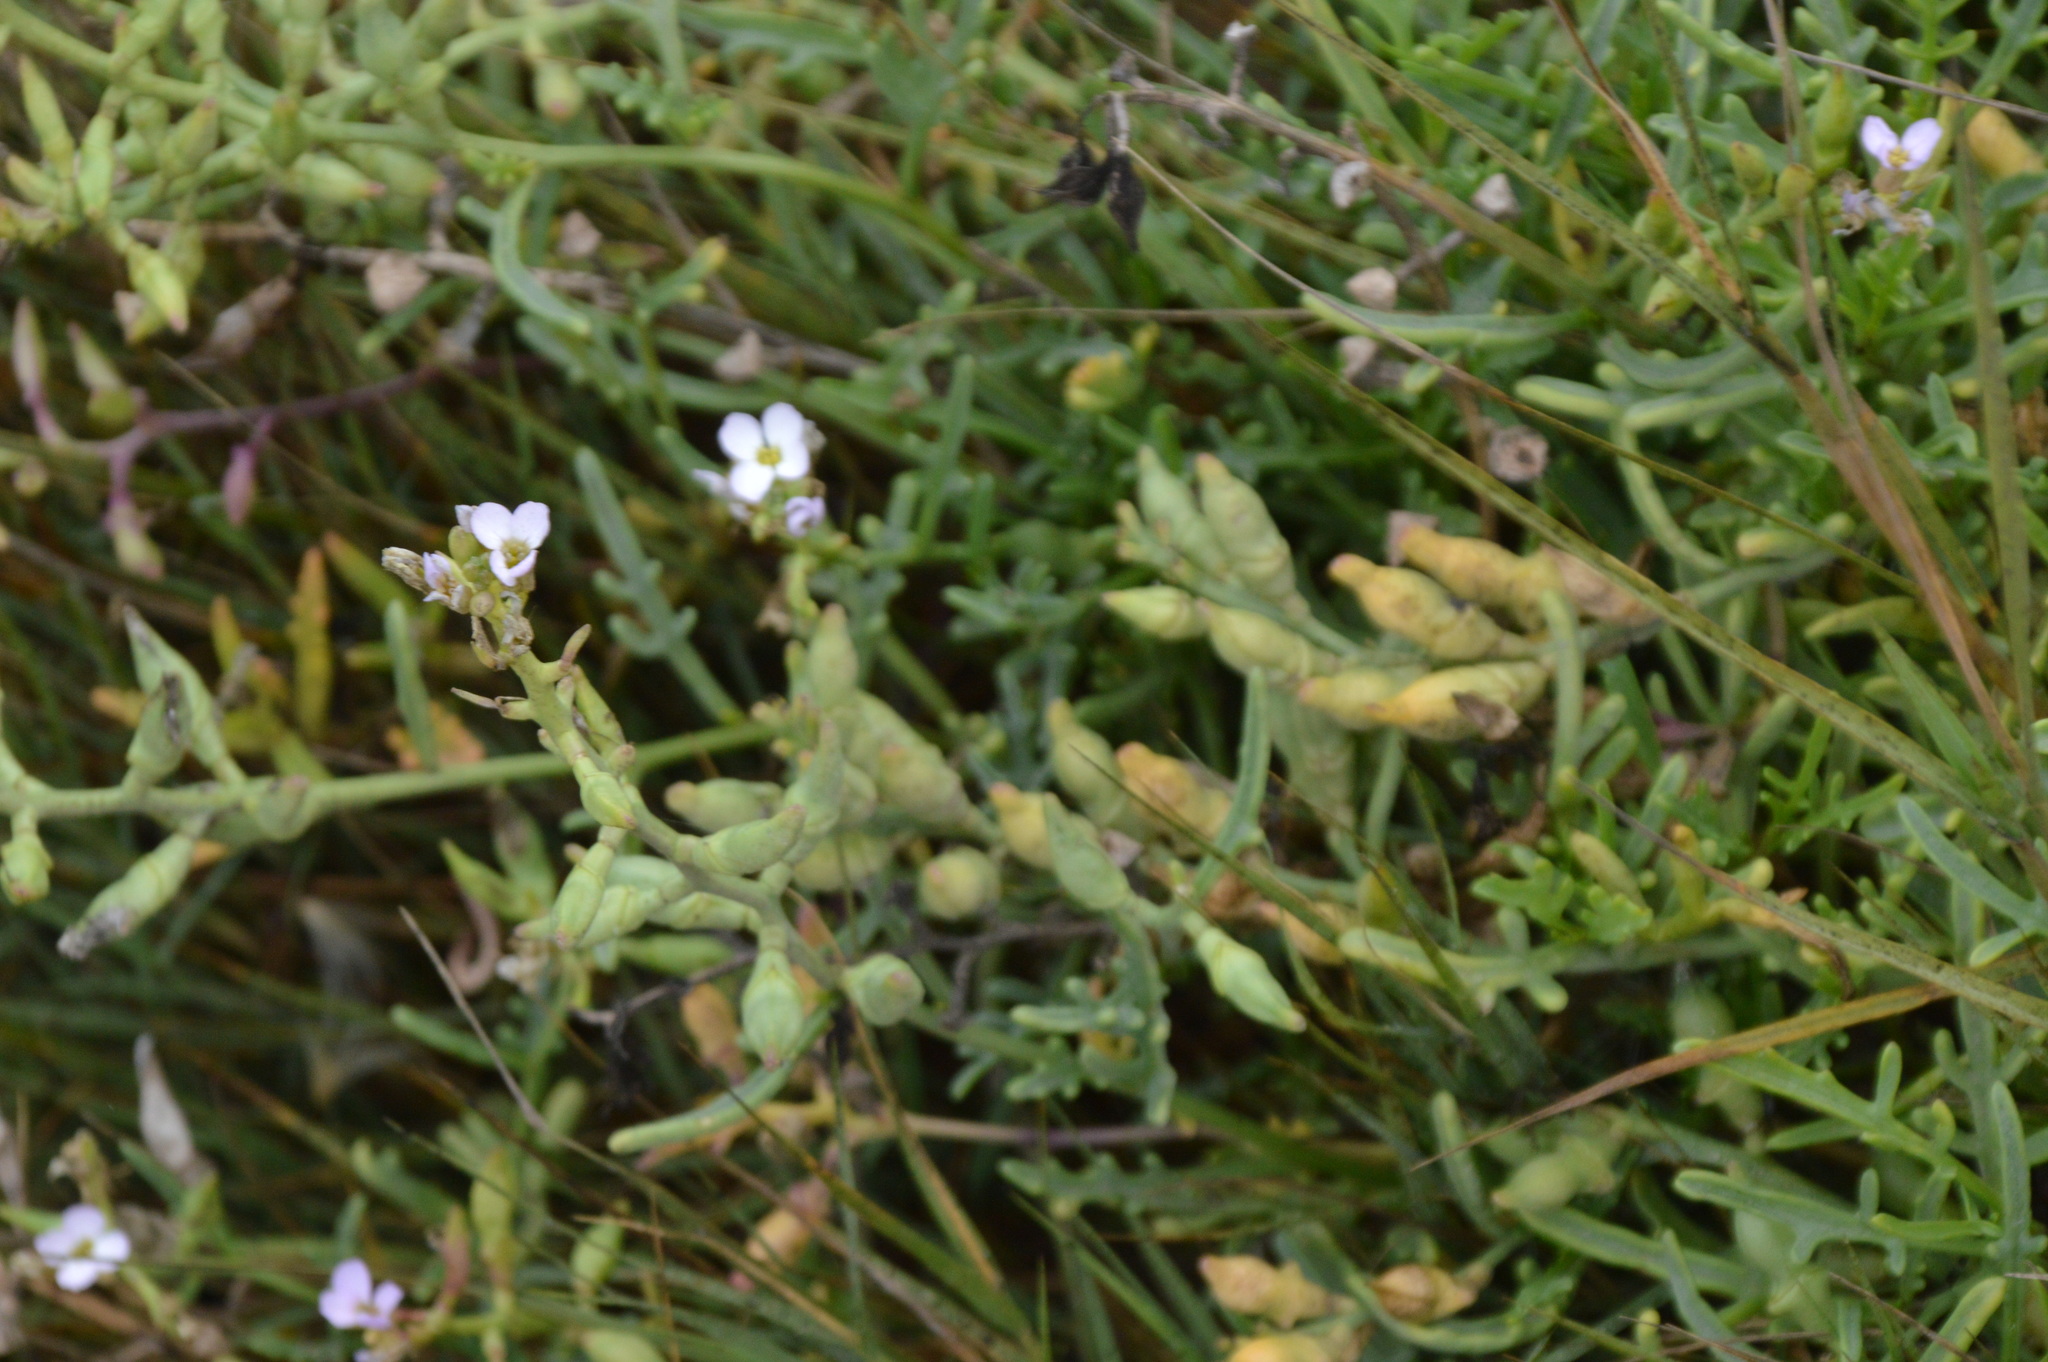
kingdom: Plantae
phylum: Tracheophyta
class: Magnoliopsida
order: Brassicales
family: Brassicaceae
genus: Cakile
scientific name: Cakile maritima
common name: Sea rocket
